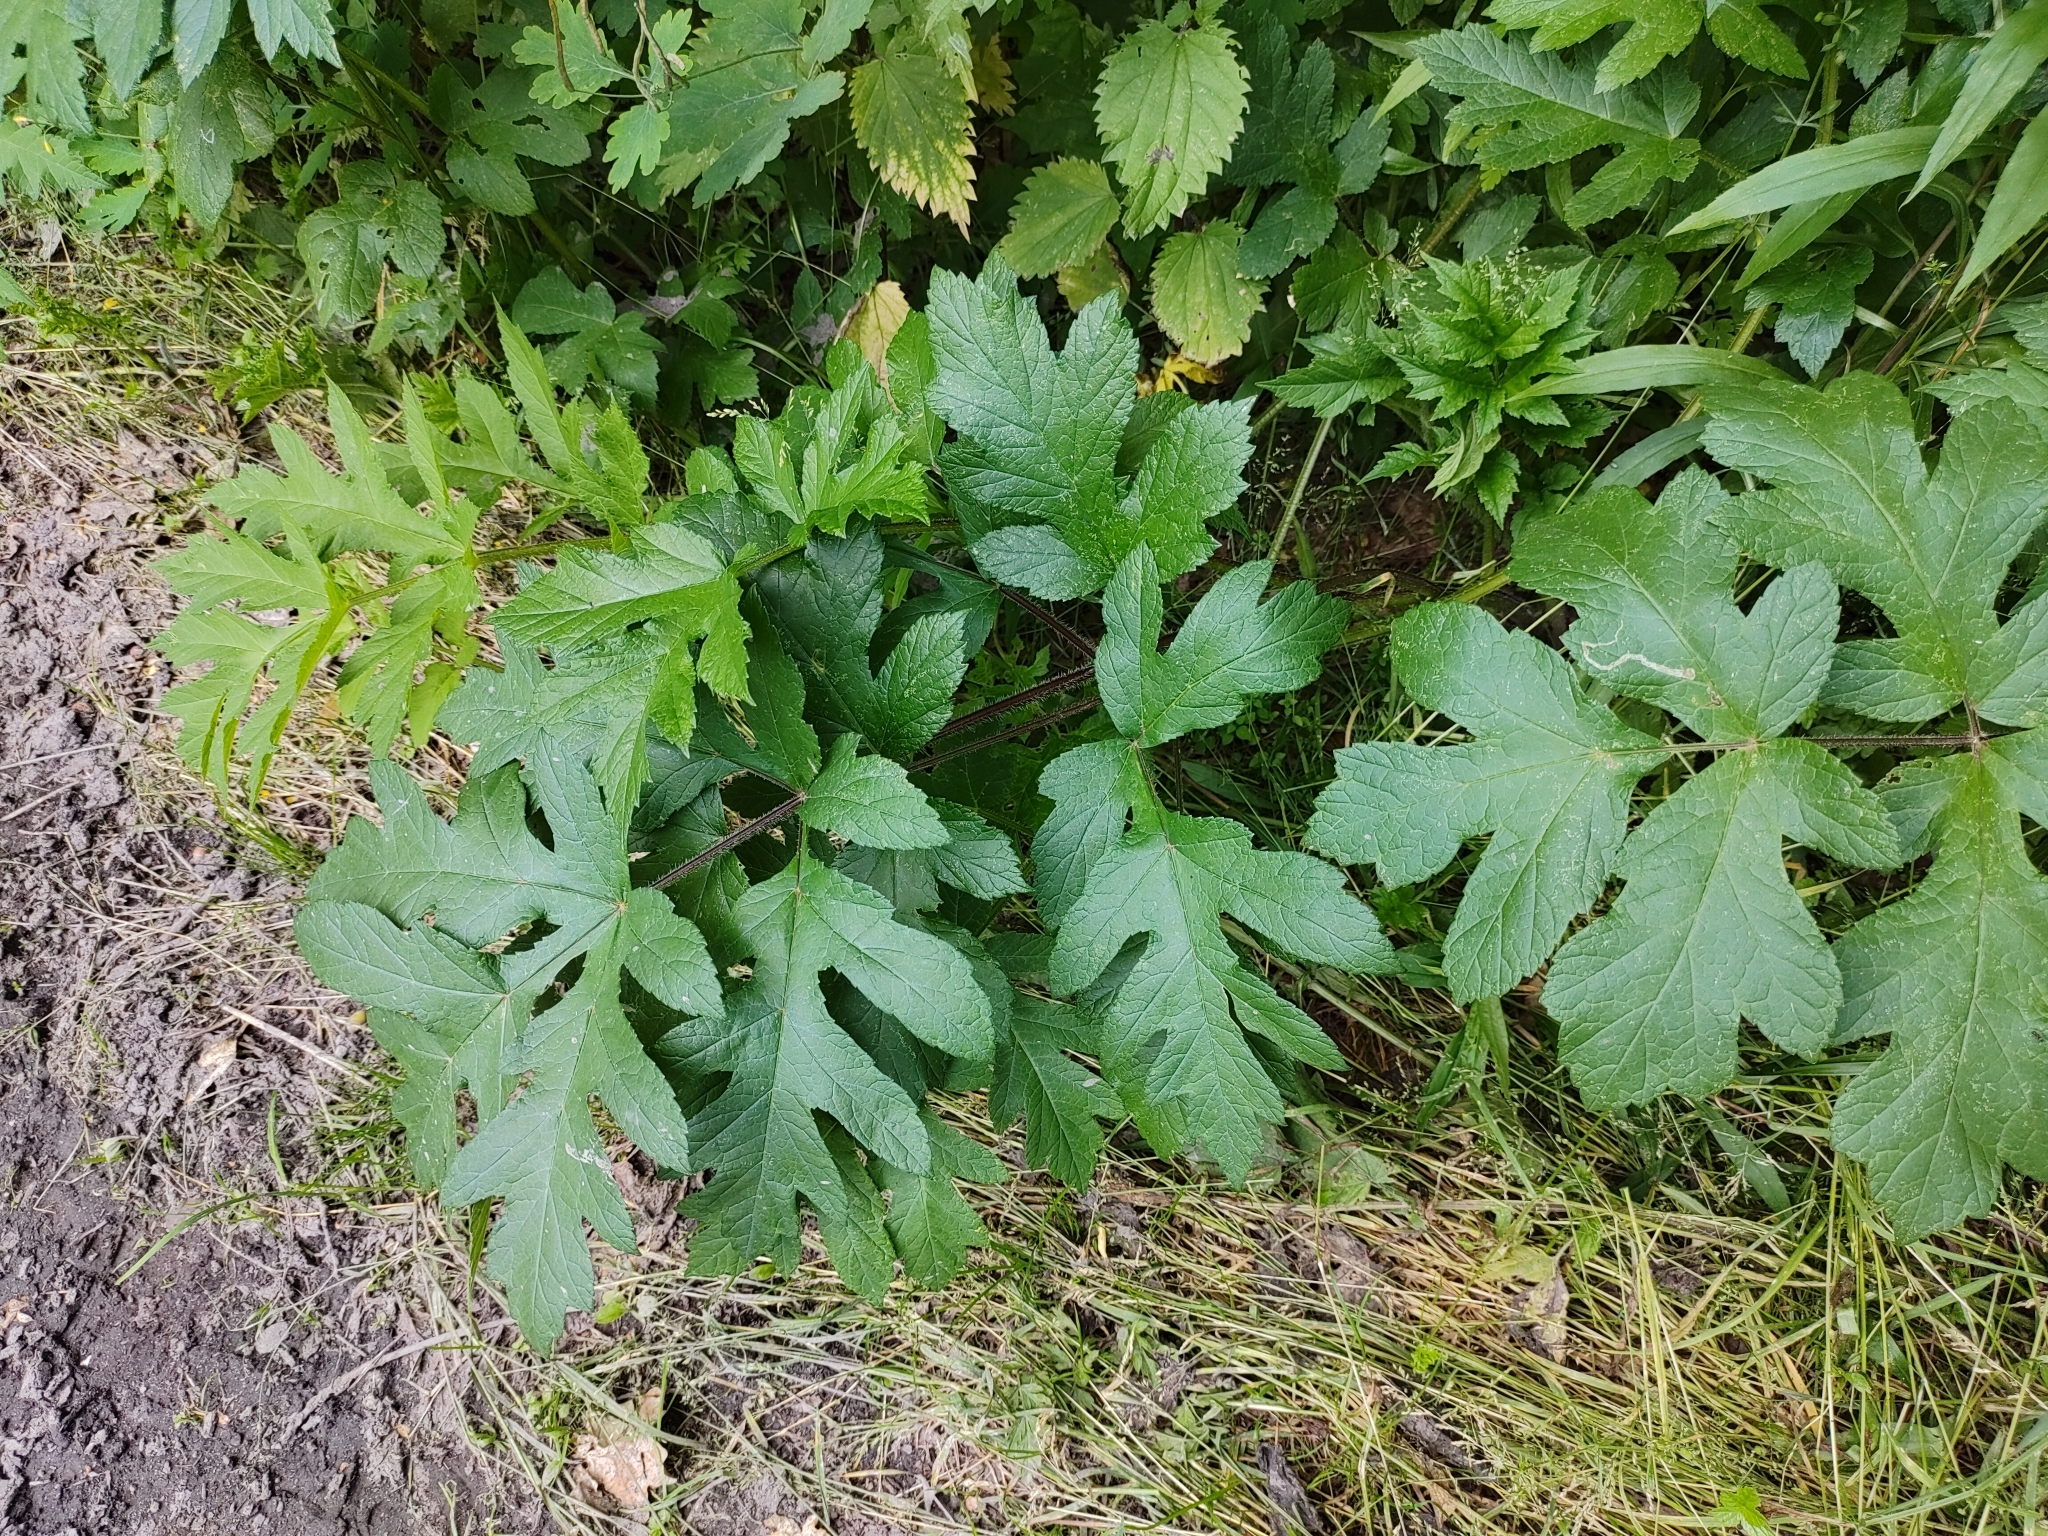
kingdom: Plantae
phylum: Tracheophyta
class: Magnoliopsida
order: Apiales
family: Apiaceae
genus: Heracleum
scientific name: Heracleum sphondylium
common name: Hogweed
